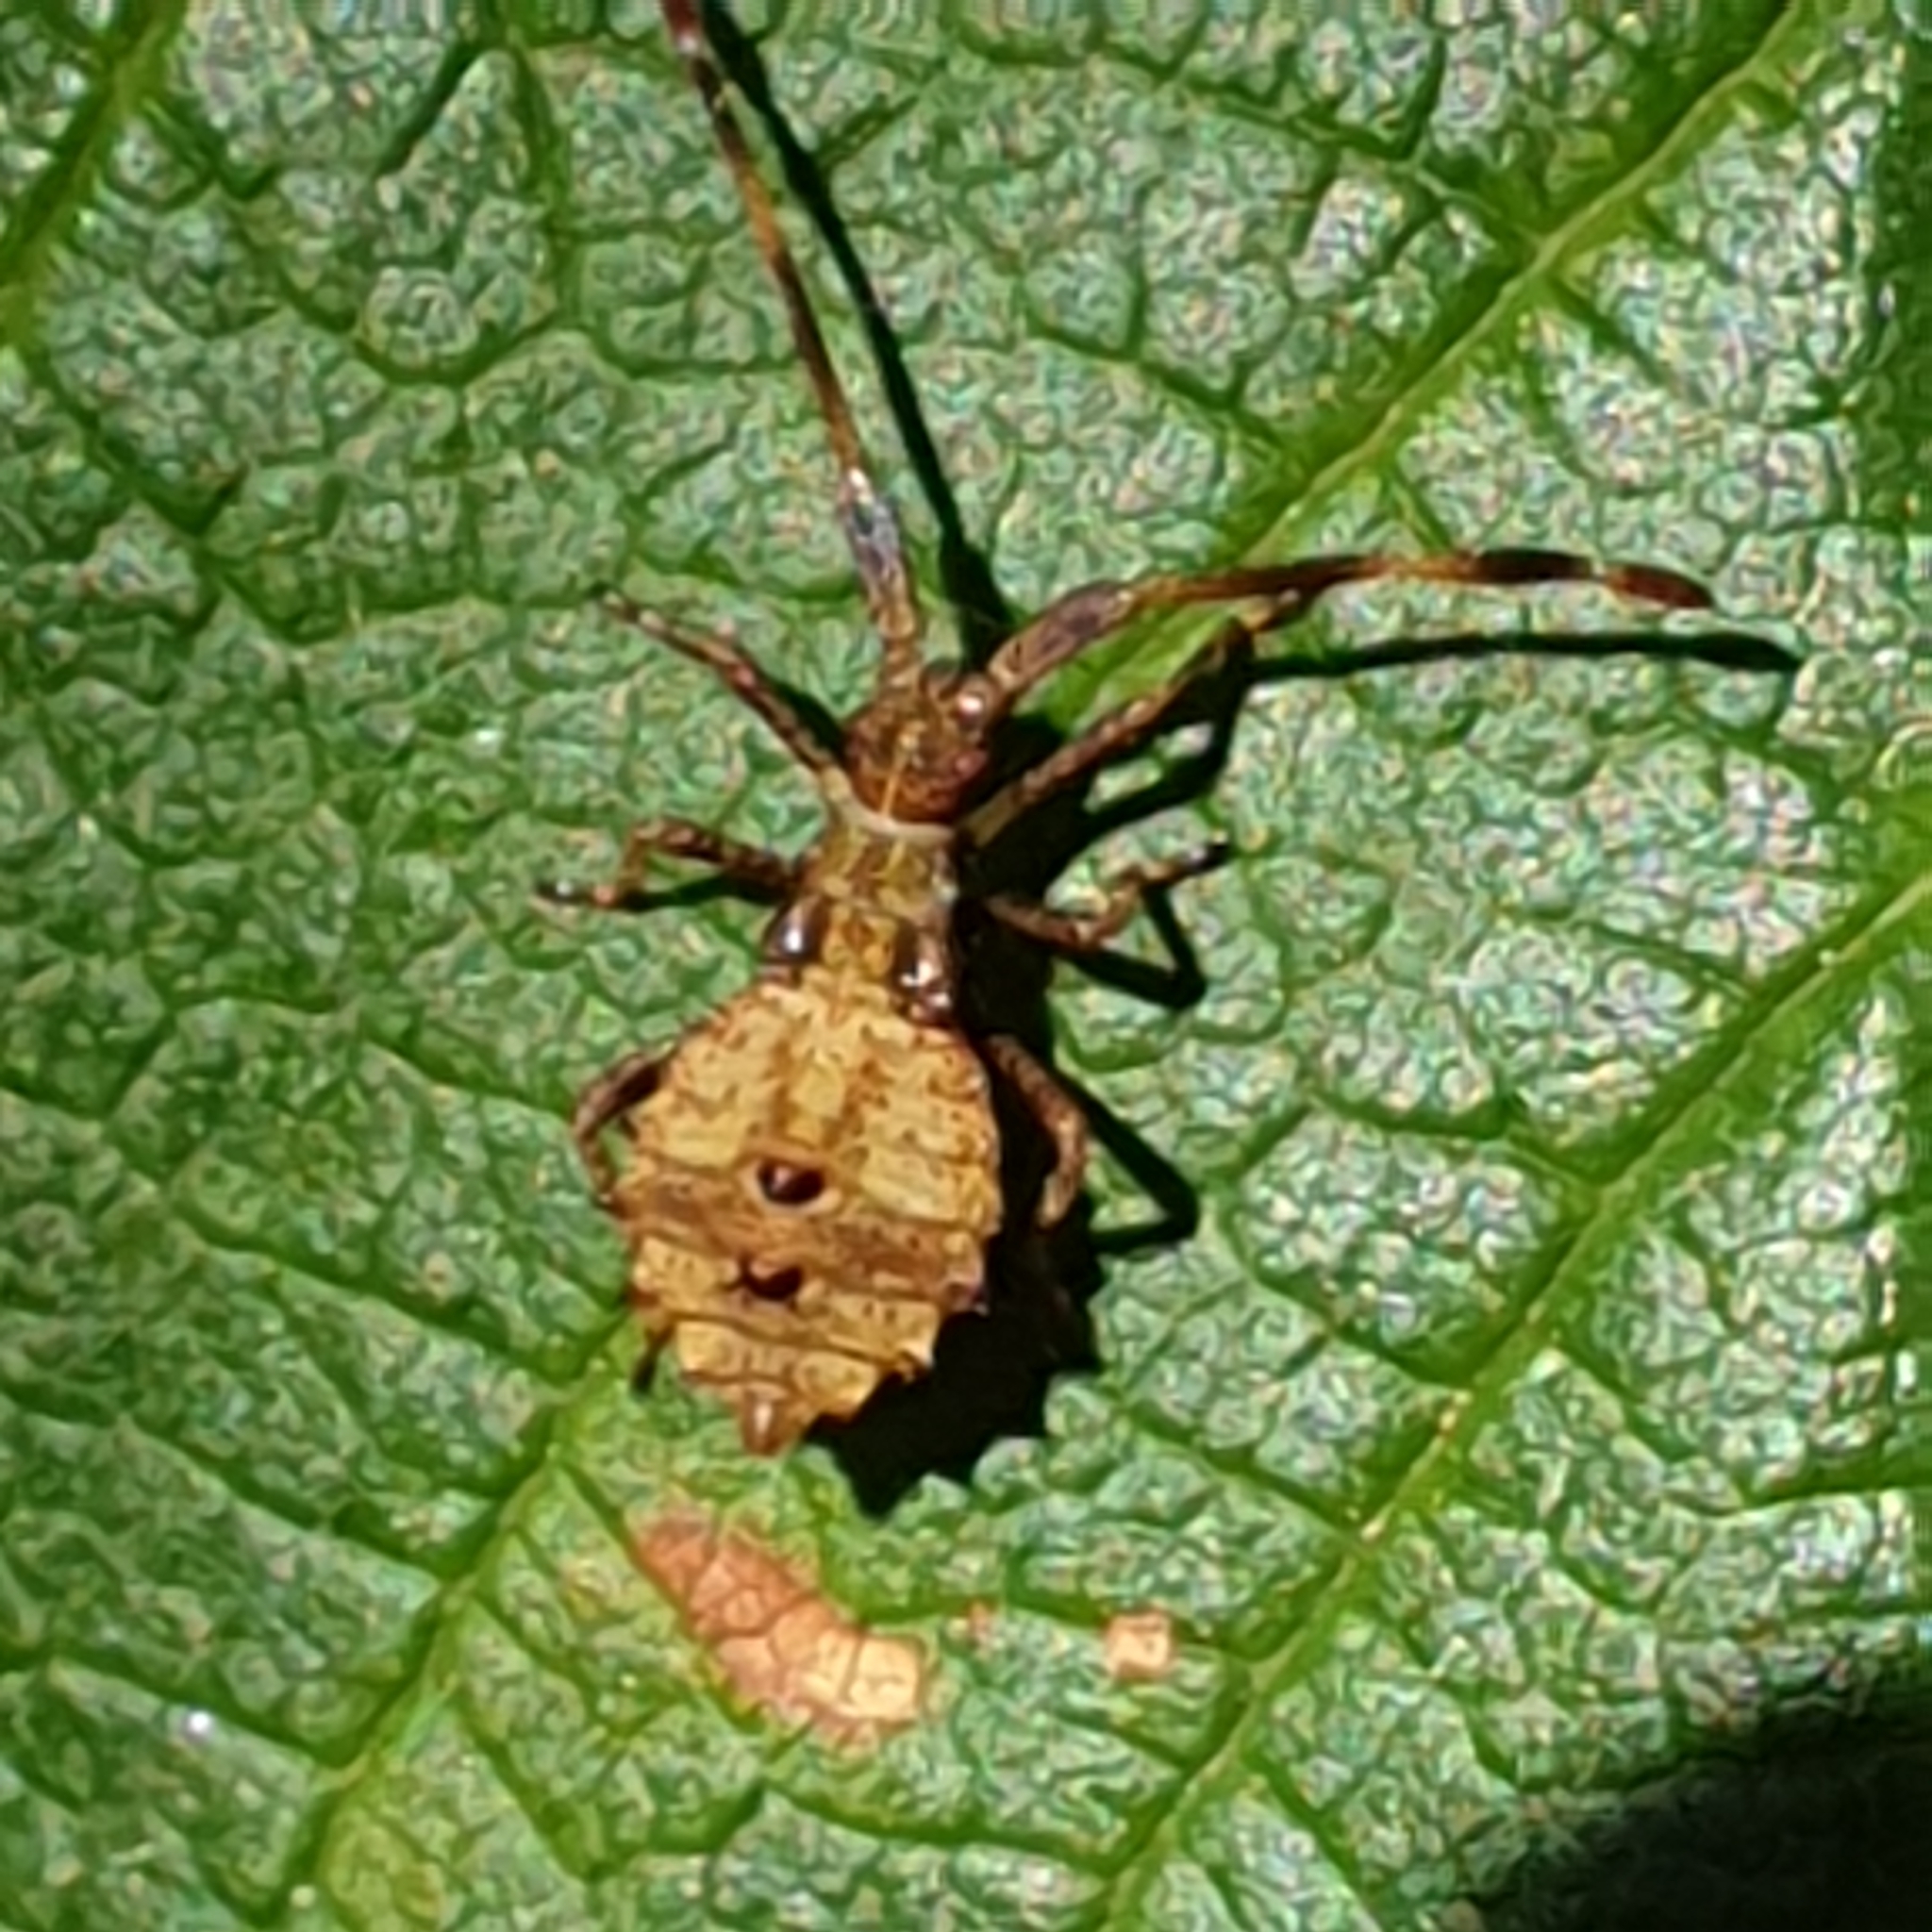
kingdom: Animalia
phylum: Arthropoda
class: Insecta
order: Hemiptera
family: Coreidae
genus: Coreus
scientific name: Coreus marginatus
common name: Dock bug
